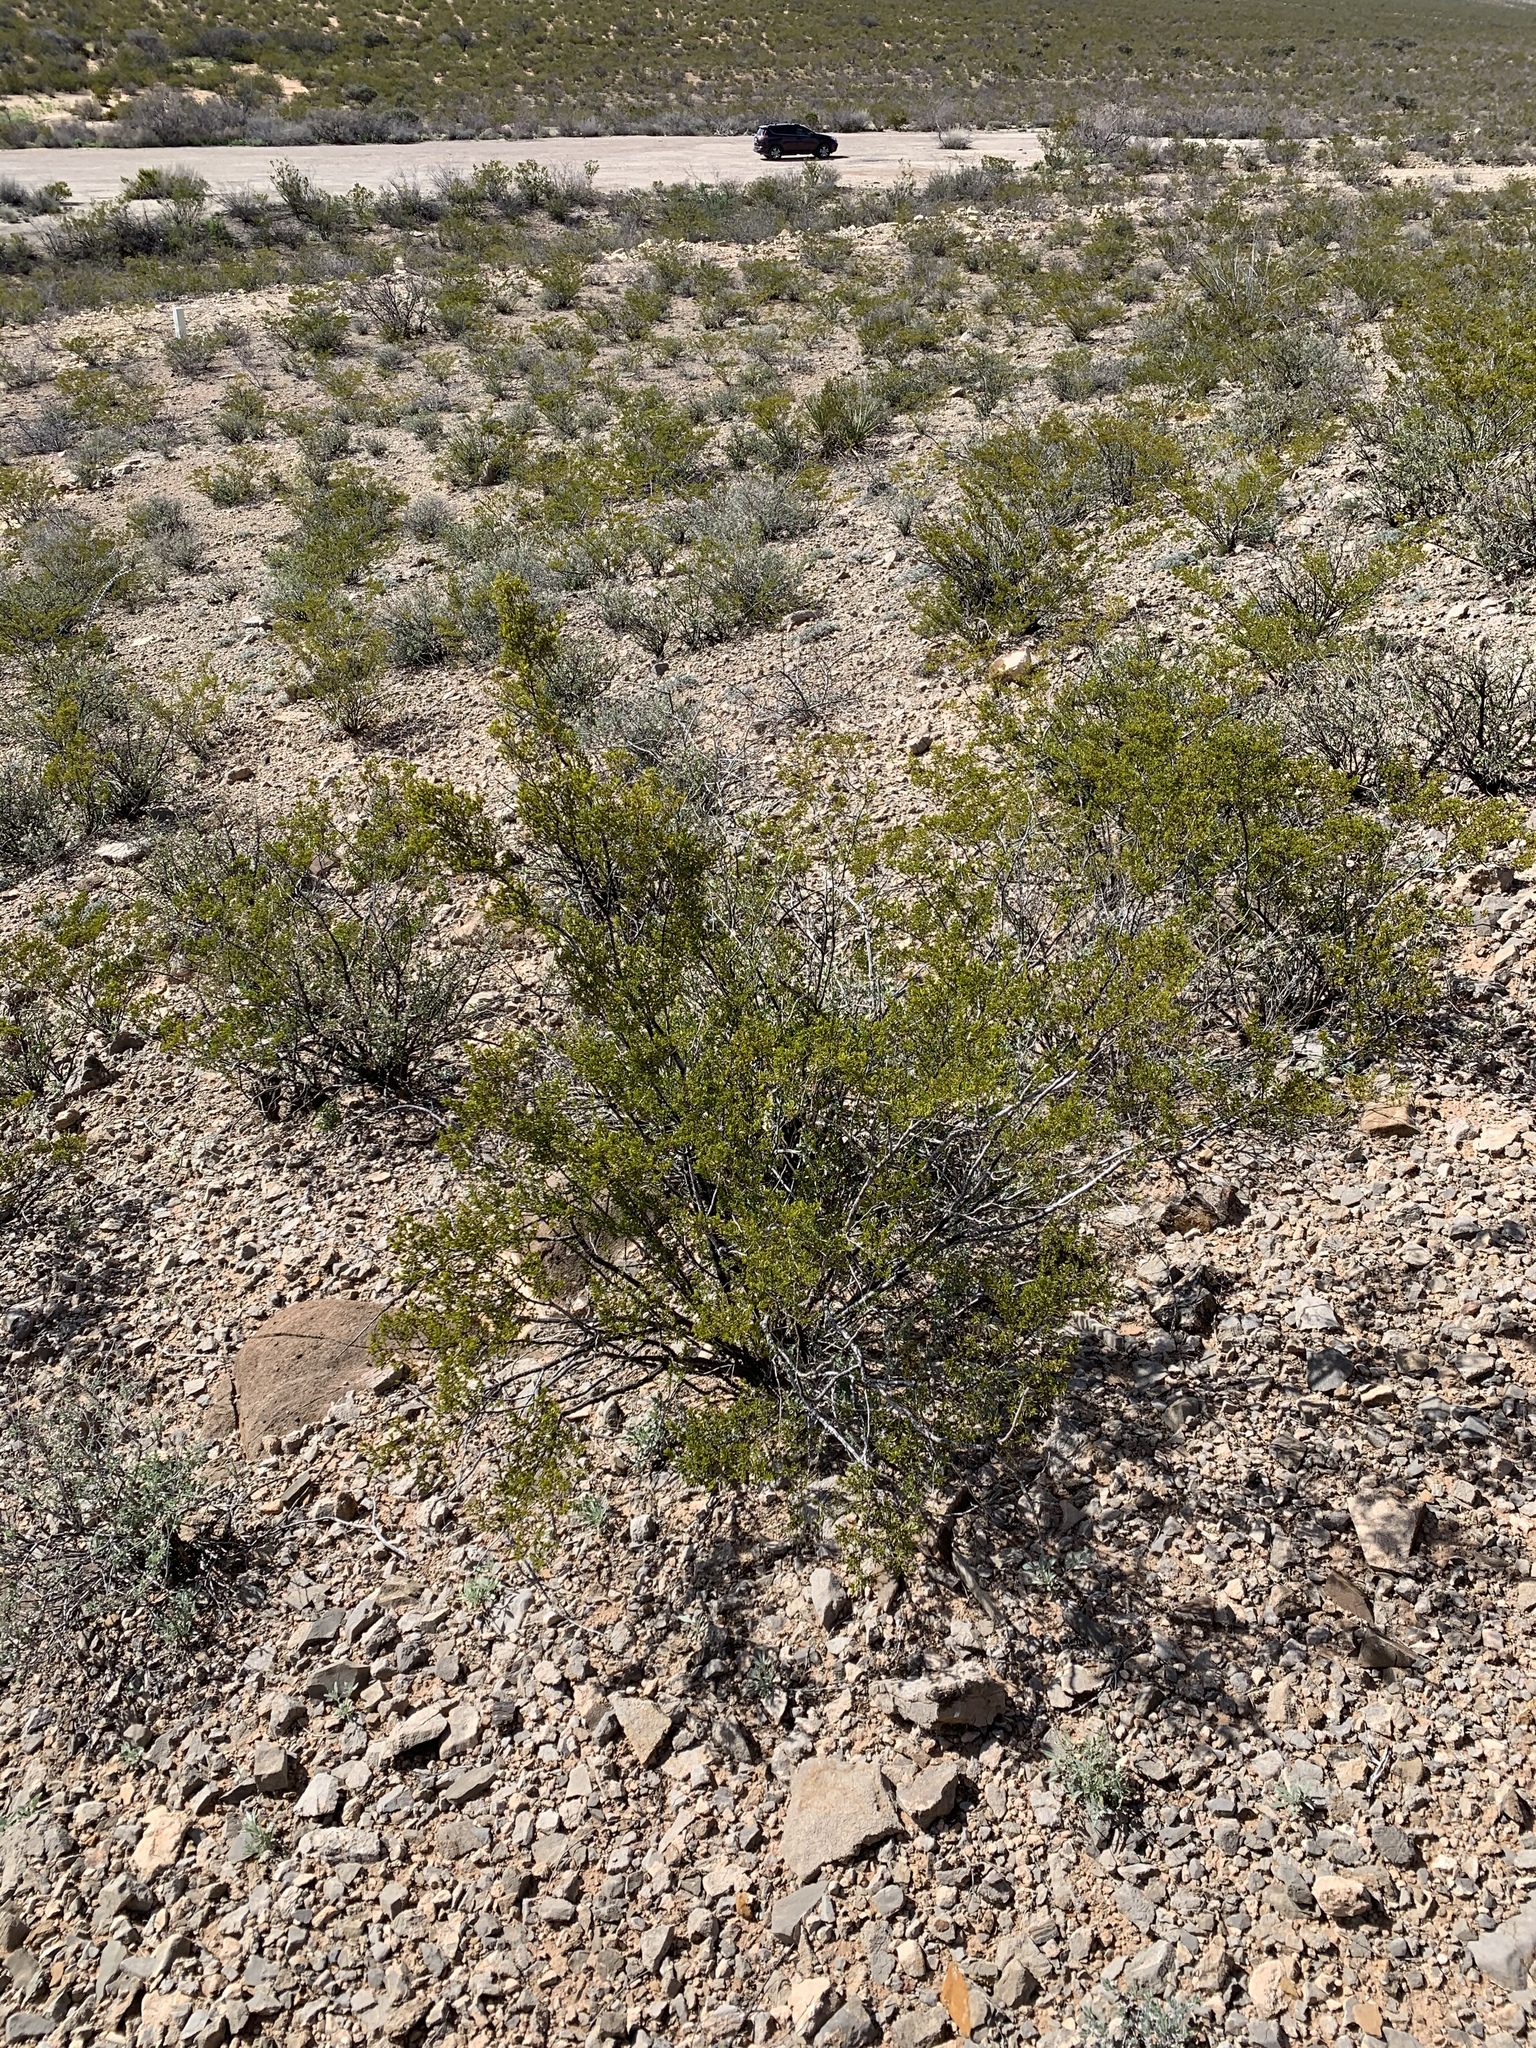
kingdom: Plantae
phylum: Tracheophyta
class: Magnoliopsida
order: Zygophyllales
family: Zygophyllaceae
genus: Larrea
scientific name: Larrea tridentata
